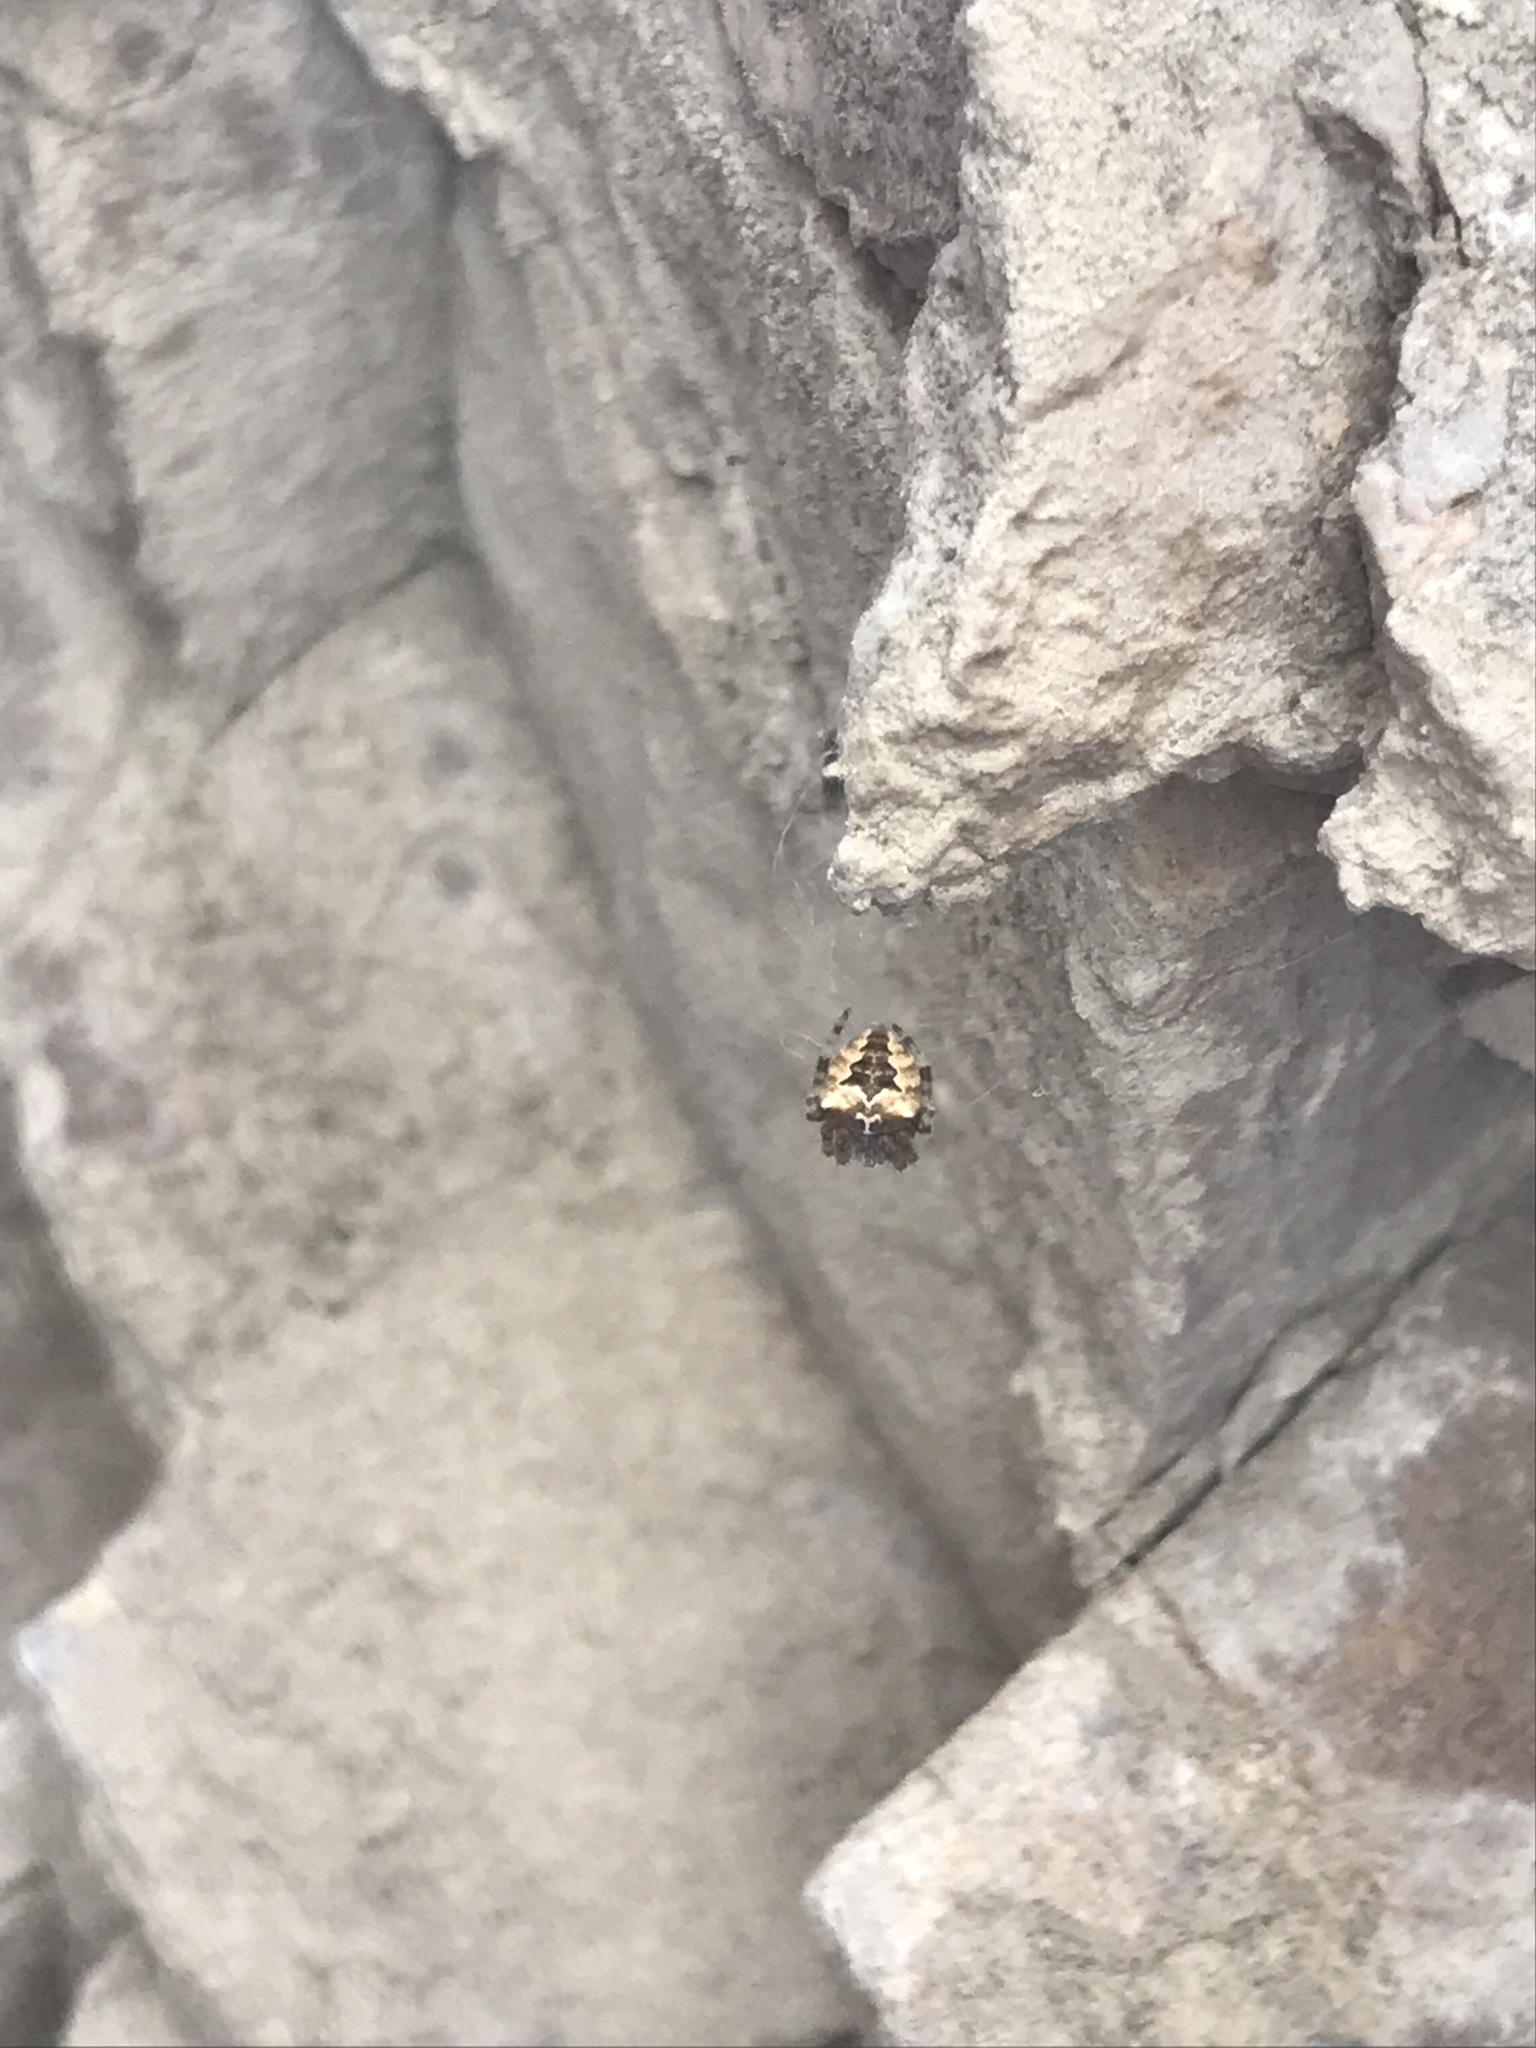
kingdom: Animalia
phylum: Arthropoda
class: Arachnida
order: Araneae
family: Araneidae
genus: Araneus
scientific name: Araneus gemmoides
